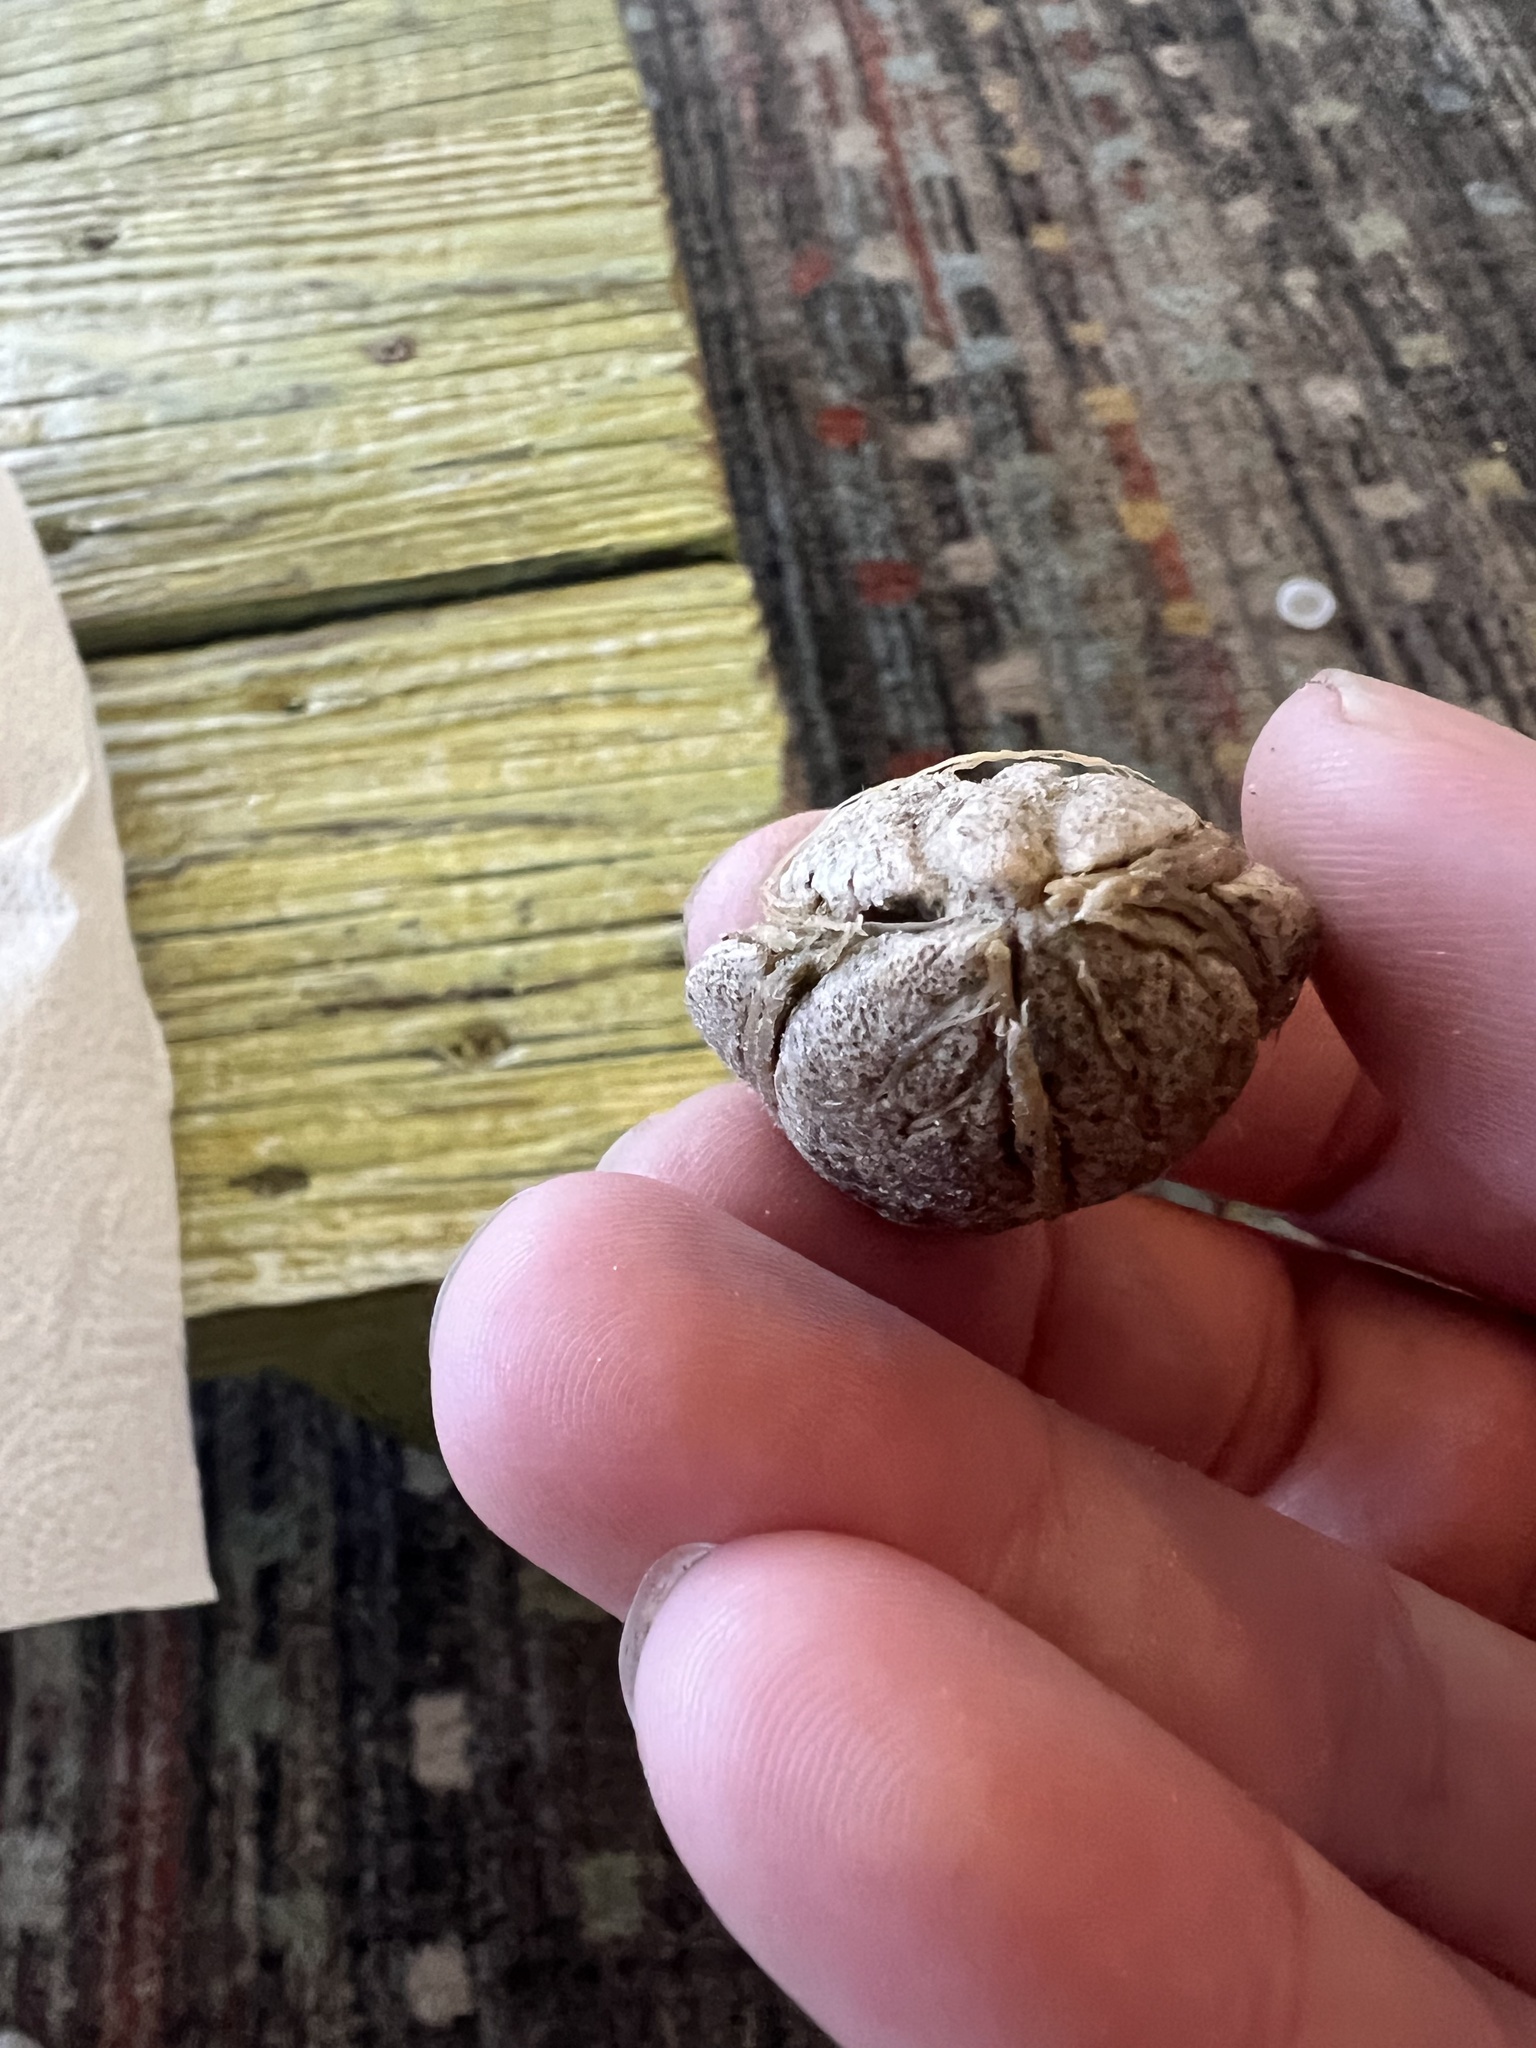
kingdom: Plantae
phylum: Tracheophyta
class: Magnoliopsida
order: Myrtales
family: Combretaceae
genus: Terminalia
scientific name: Terminalia catappa
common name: Tropical almond
